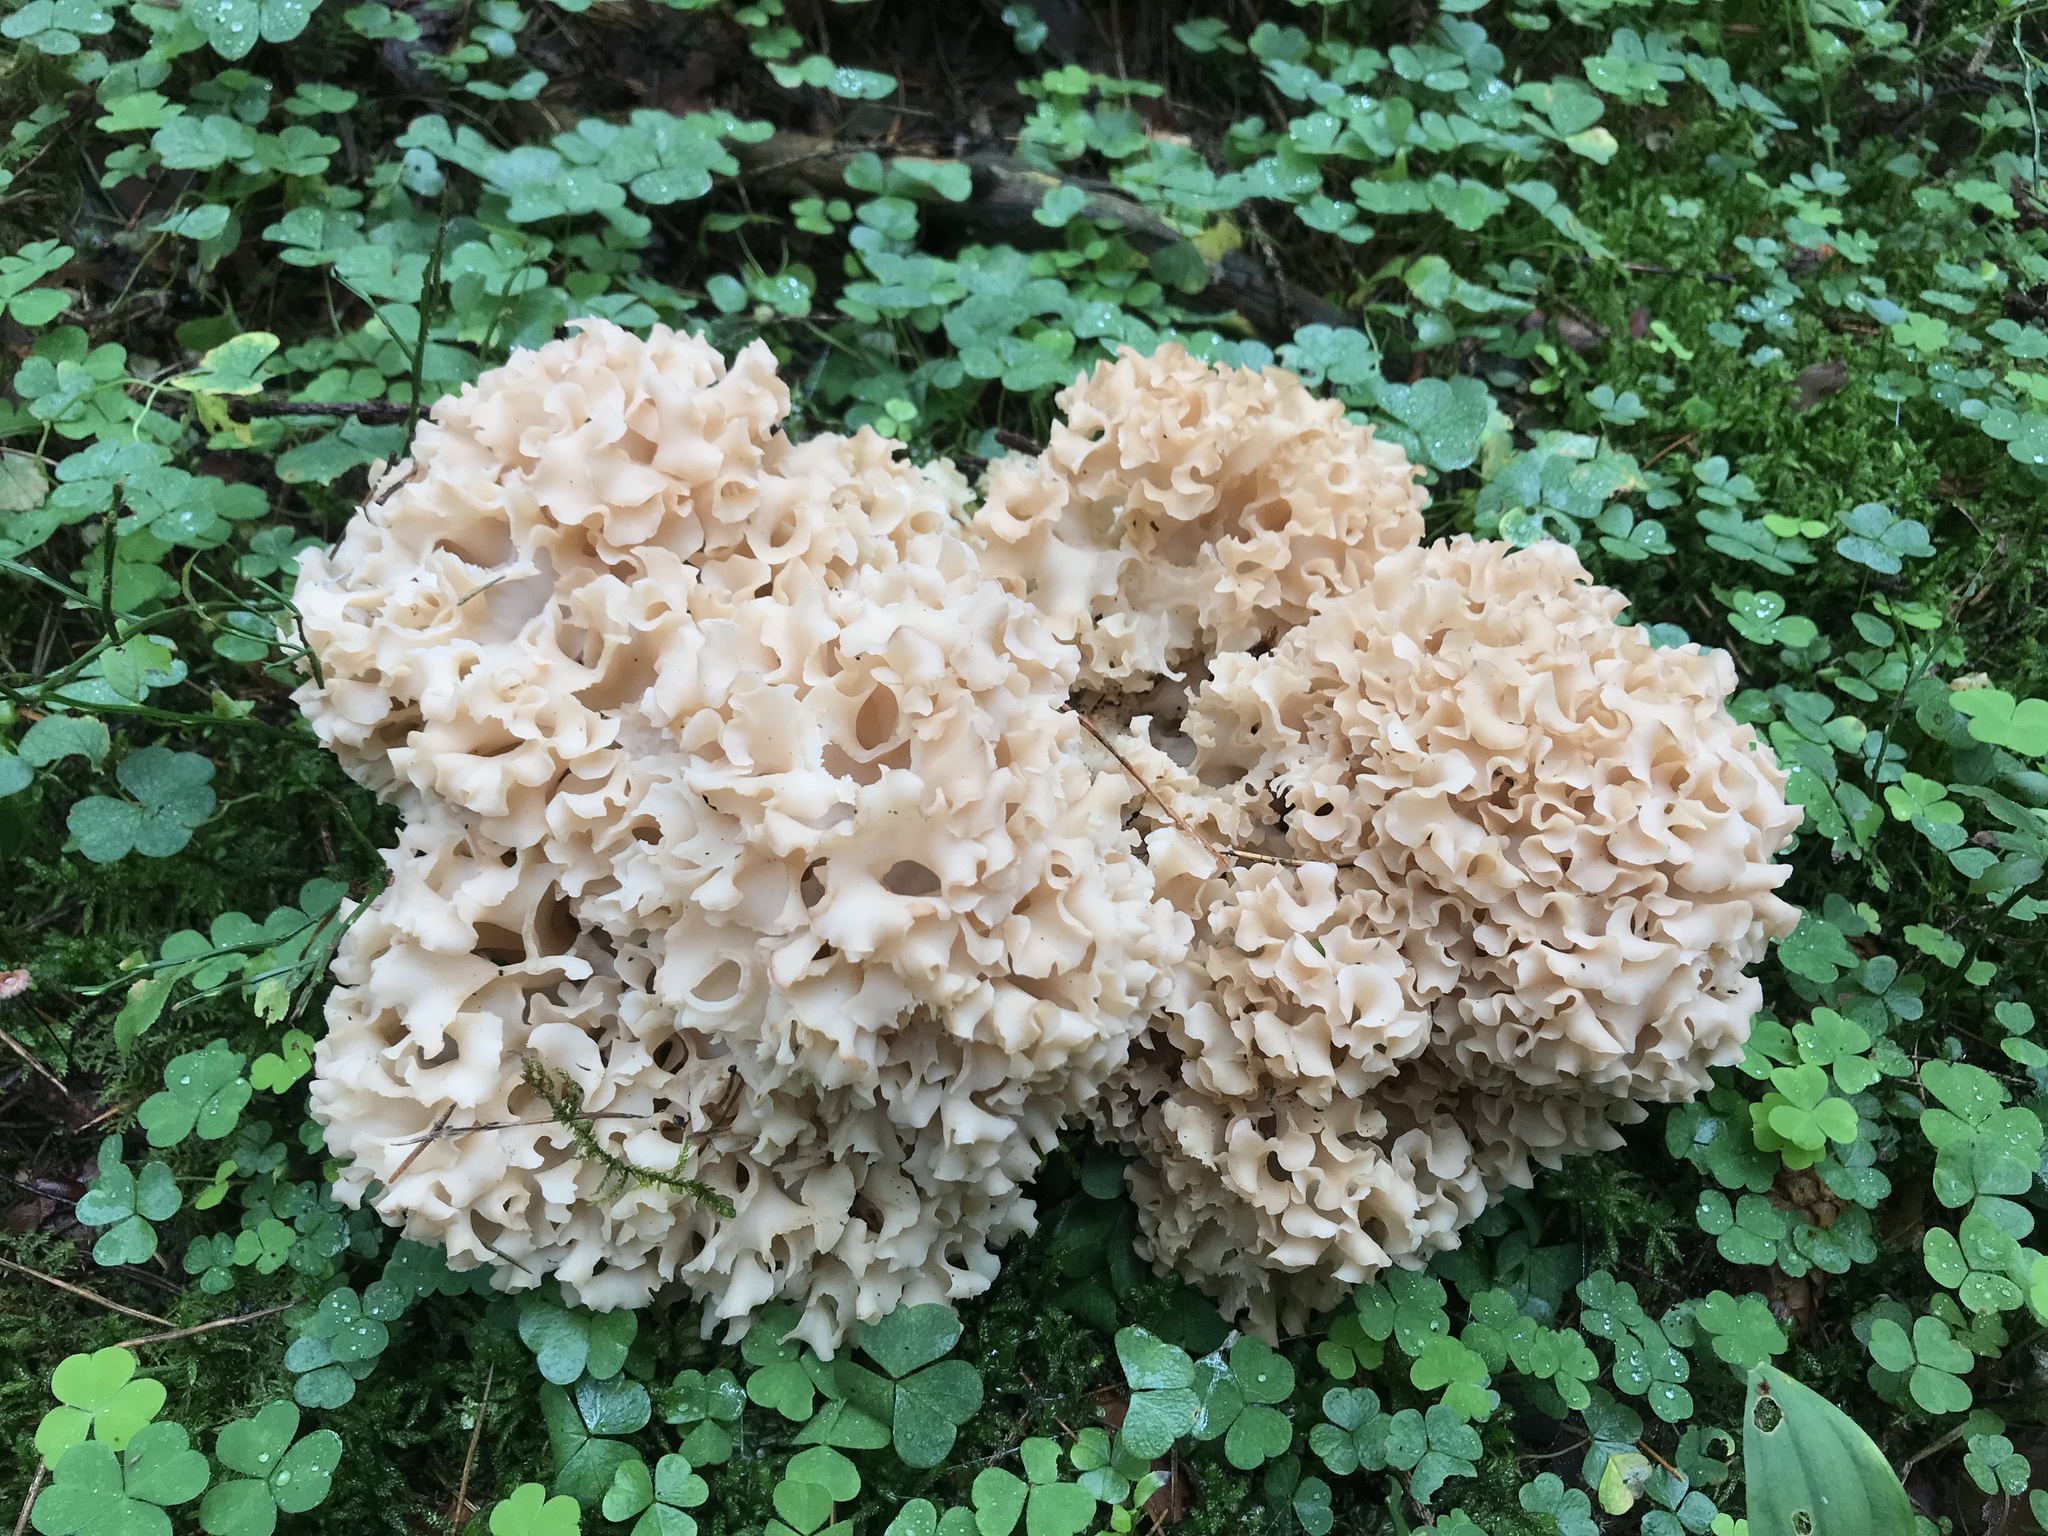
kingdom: Fungi
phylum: Basidiomycota
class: Agaricomycetes
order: Polyporales
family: Sparassidaceae
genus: Sparassis
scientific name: Sparassis crispa
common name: Brain fungus
